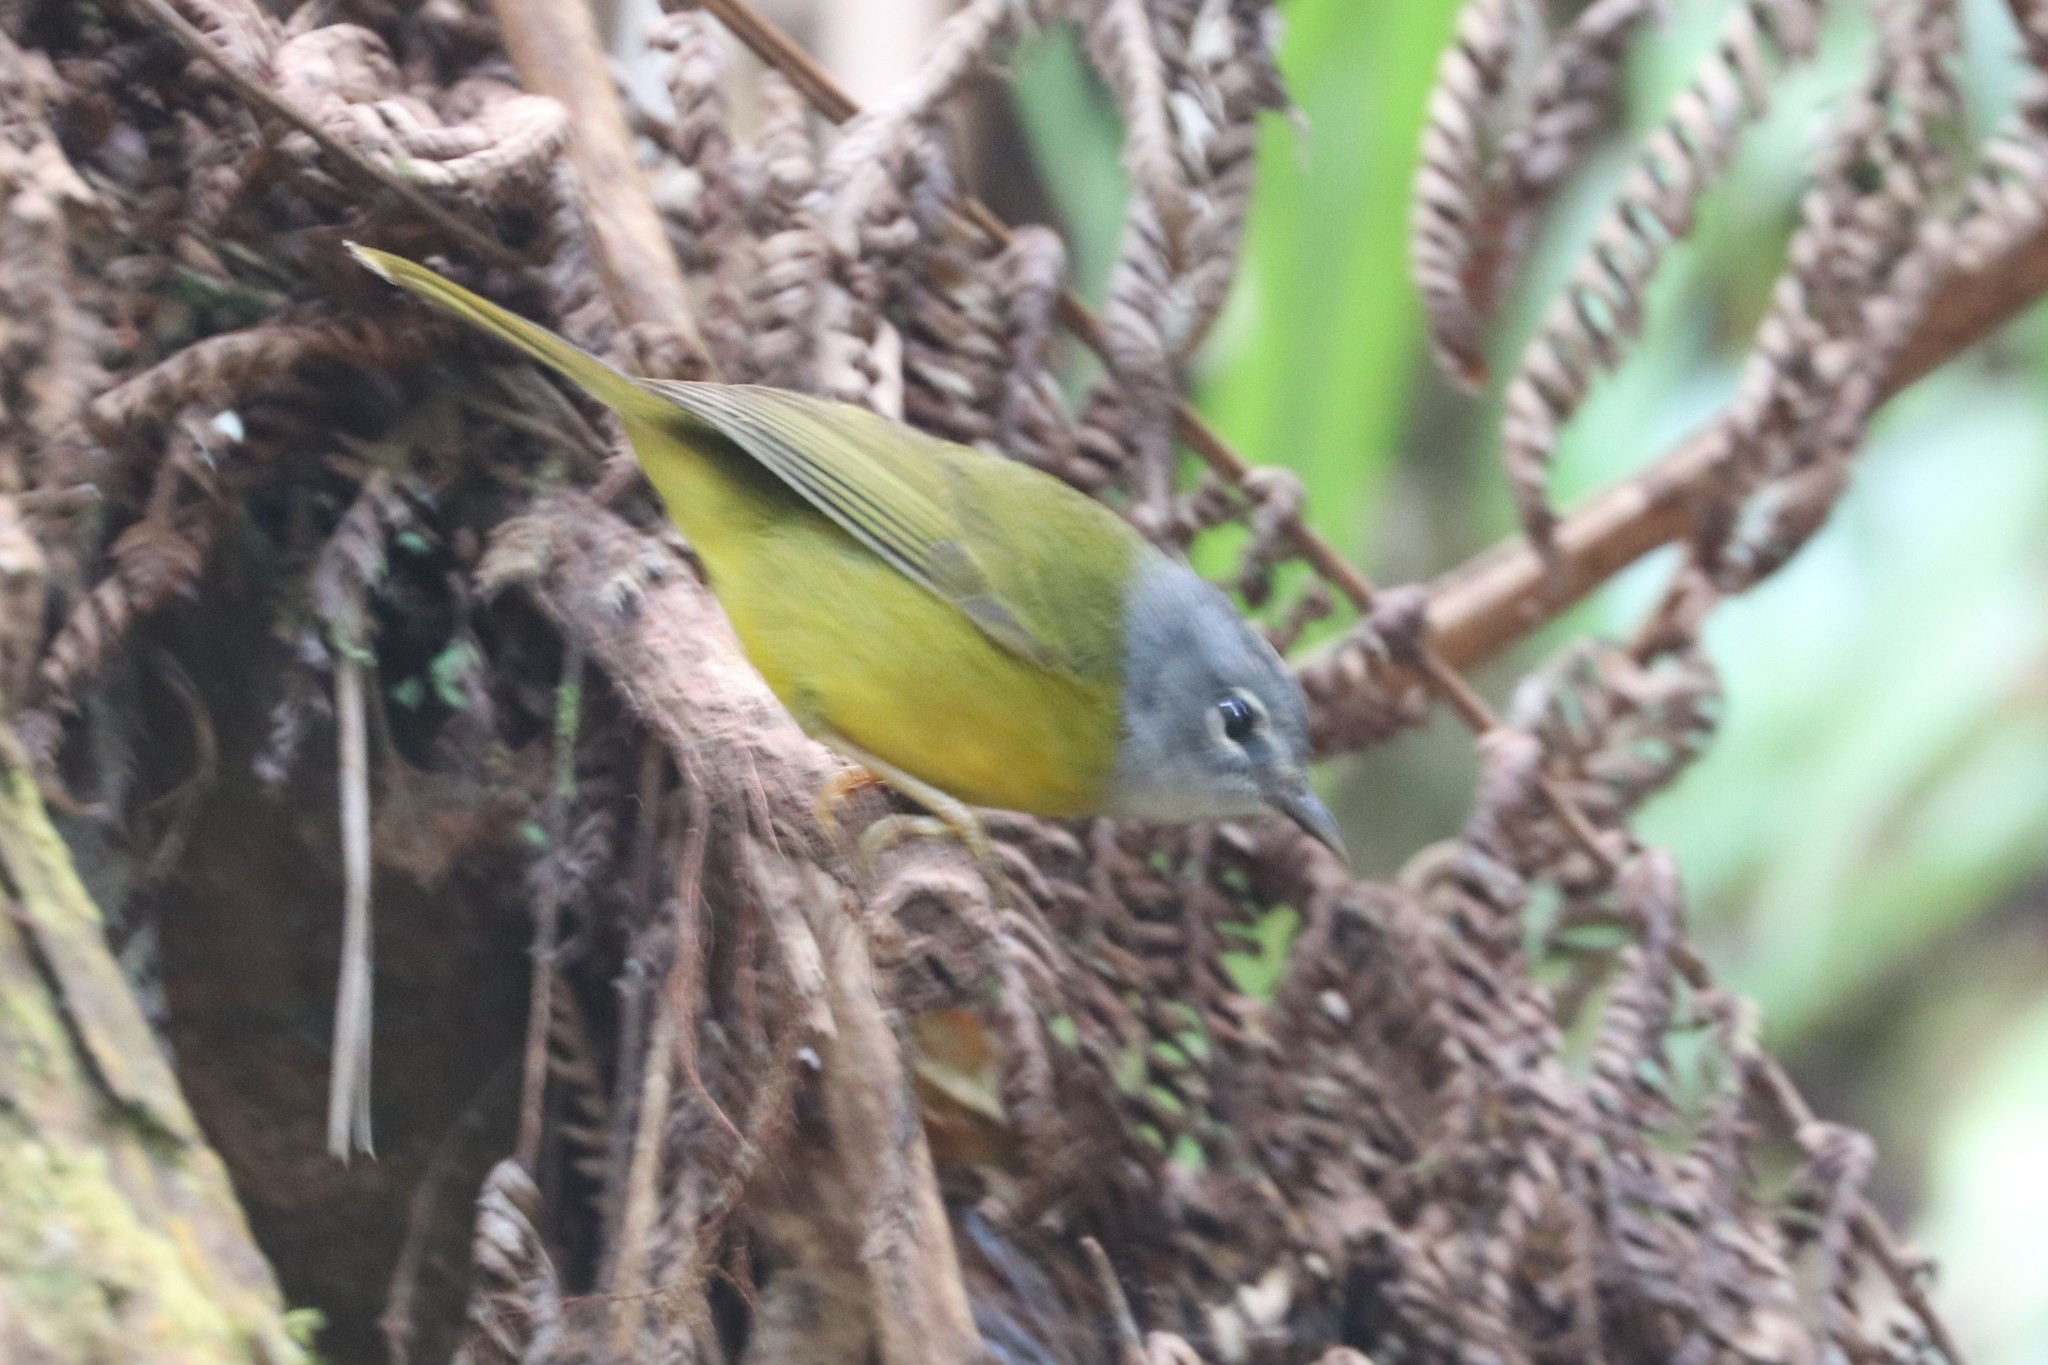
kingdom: Animalia
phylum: Chordata
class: Aves
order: Passeriformes
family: Parulidae
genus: Myiothlypis
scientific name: Myiothlypis conspicillata
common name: White-lored warbler
